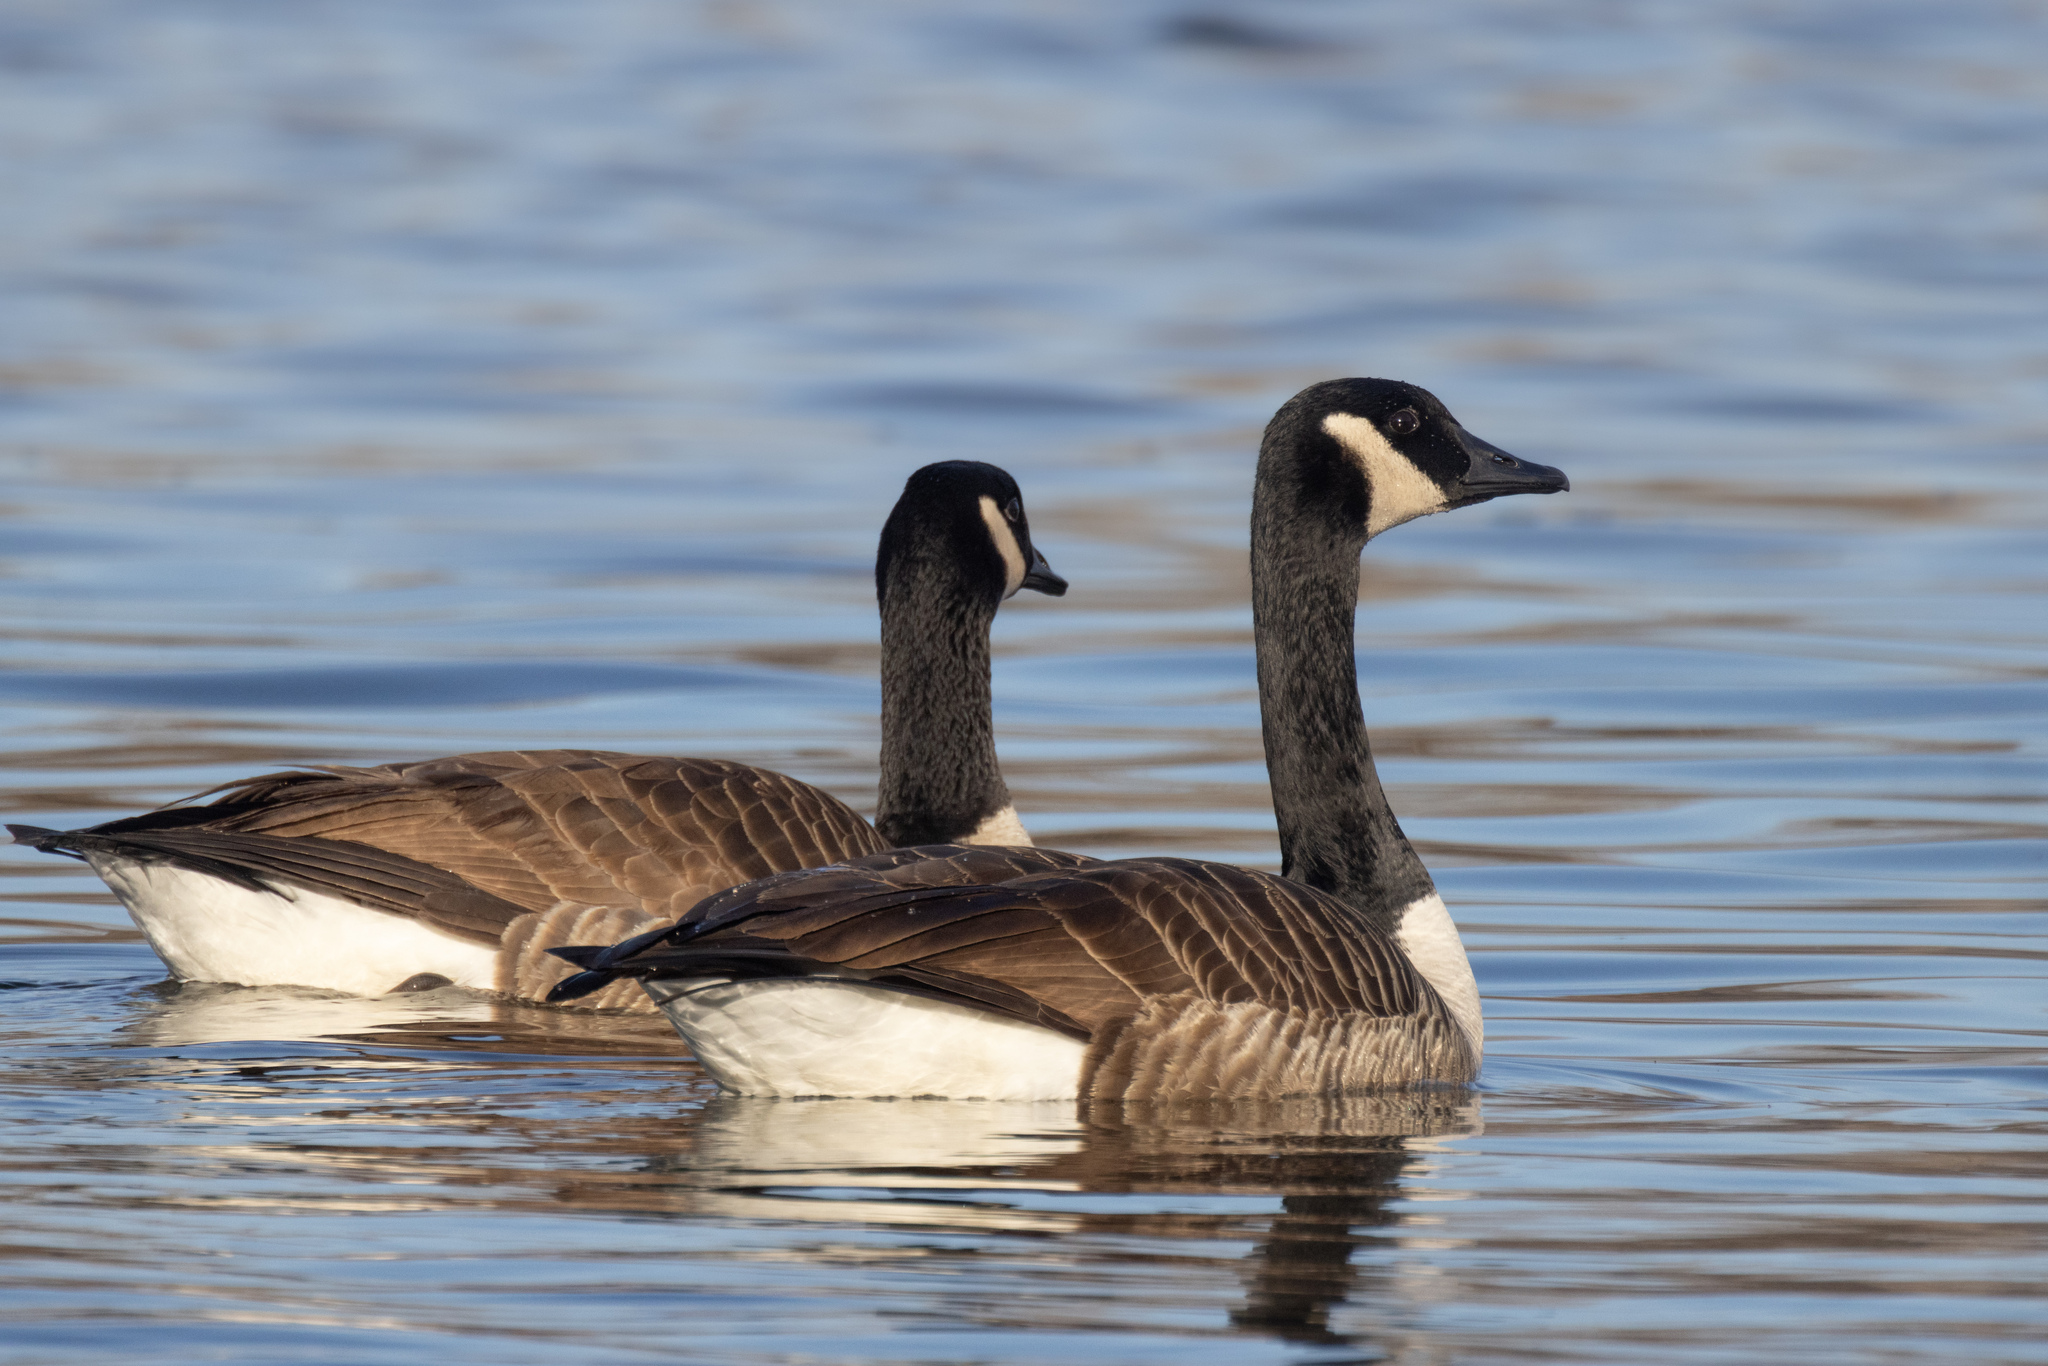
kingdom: Animalia
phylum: Chordata
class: Aves
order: Anseriformes
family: Anatidae
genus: Branta
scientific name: Branta canadensis
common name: Canada goose
